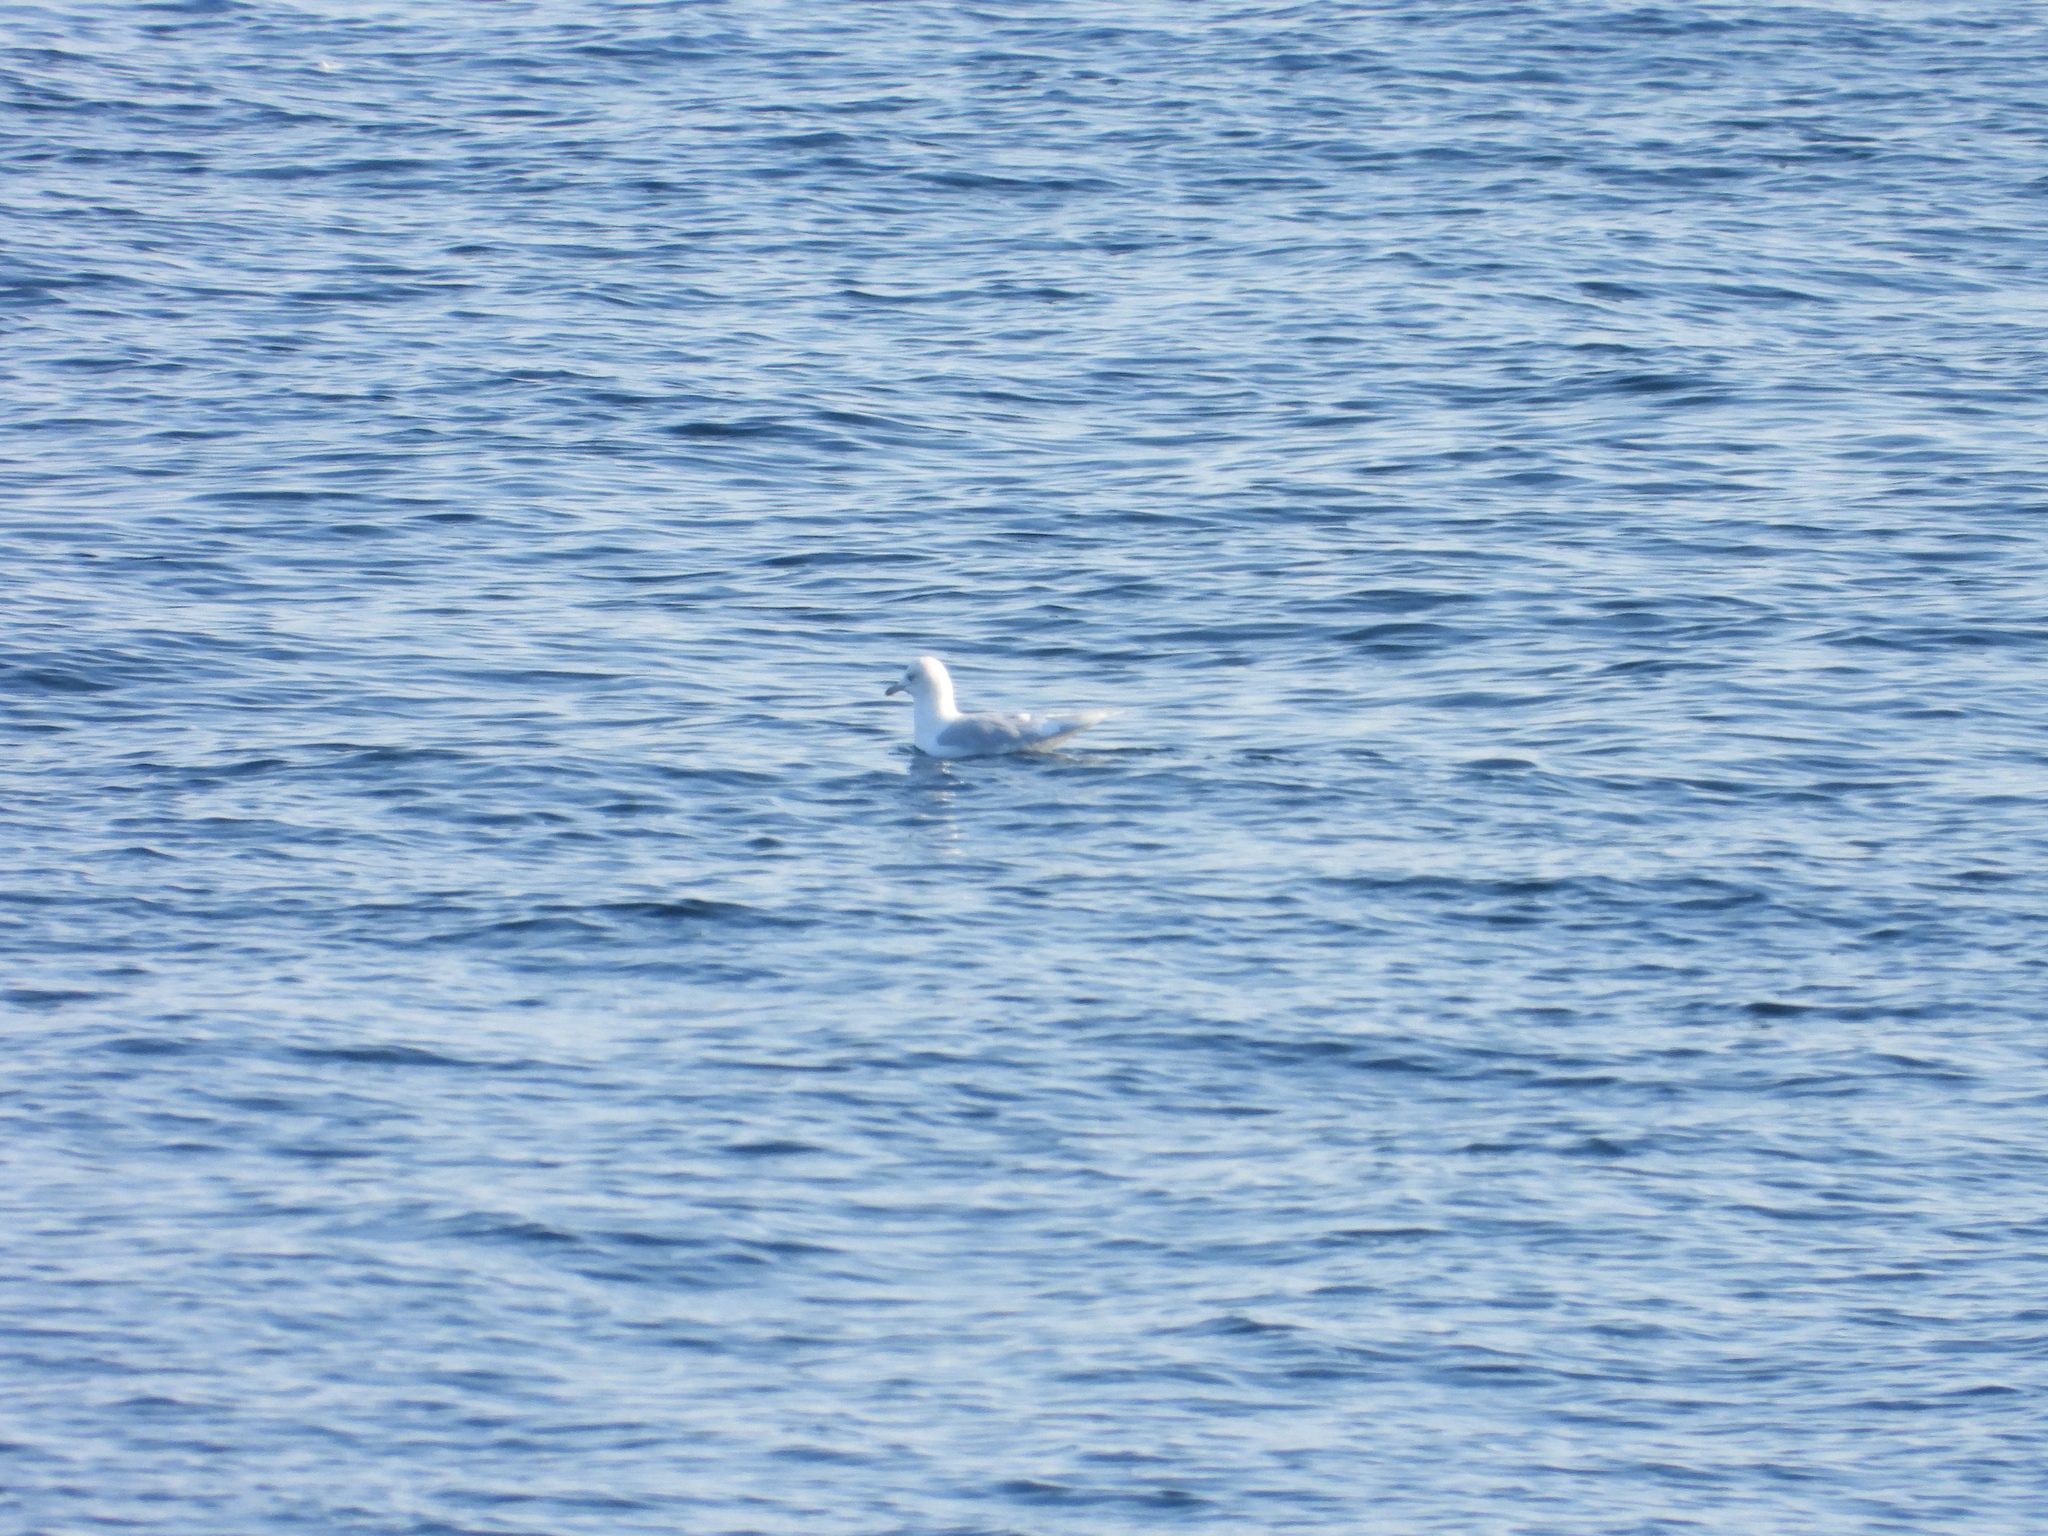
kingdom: Animalia
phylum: Chordata
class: Aves
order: Charadriiformes
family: Laridae
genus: Larus
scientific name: Larus glaucoides
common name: Iceland gull
